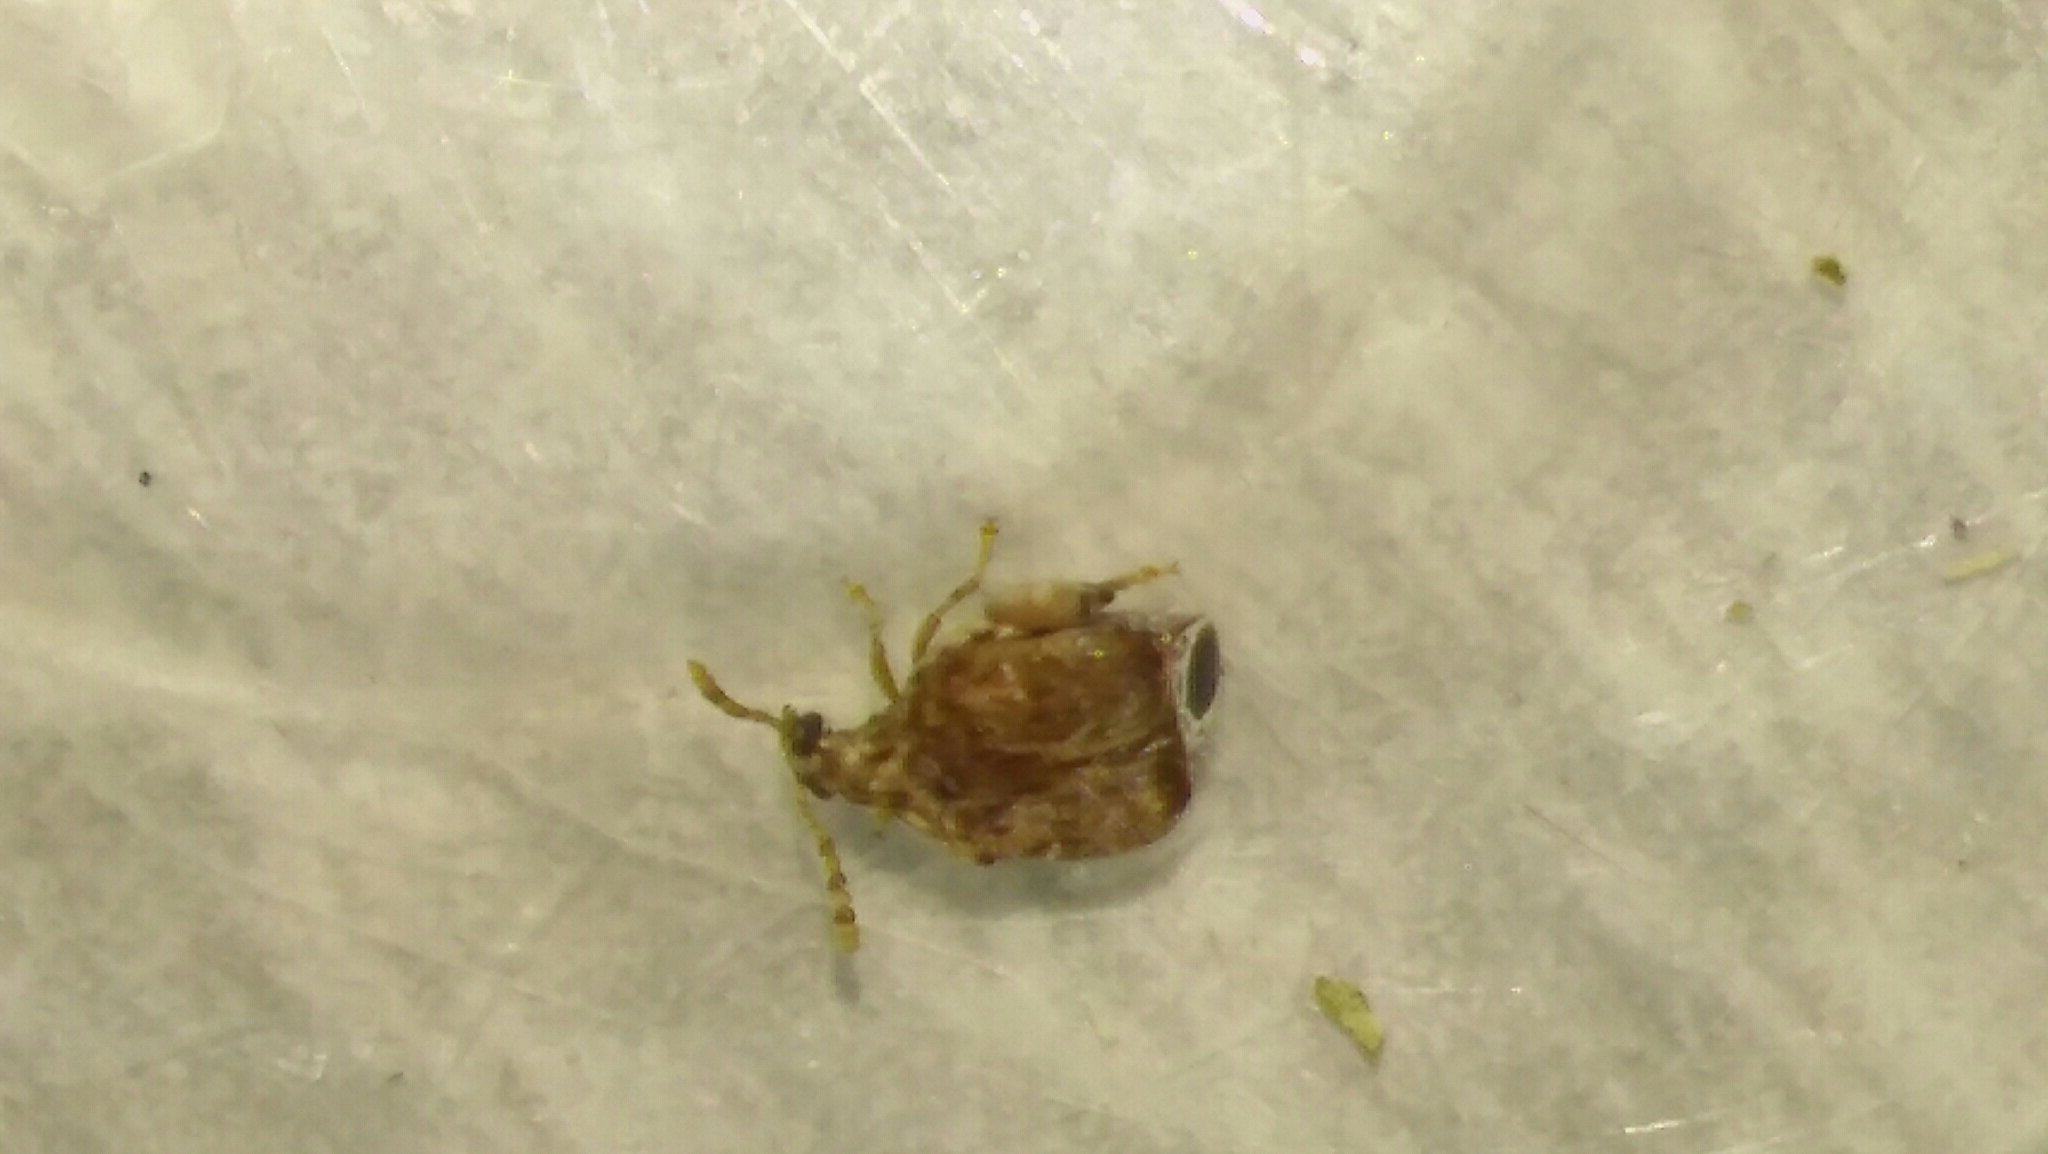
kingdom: Animalia
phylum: Arthropoda
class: Insecta
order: Coleoptera
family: Chrysomelidae
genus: Gibbobruchus
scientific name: Gibbobruchus
